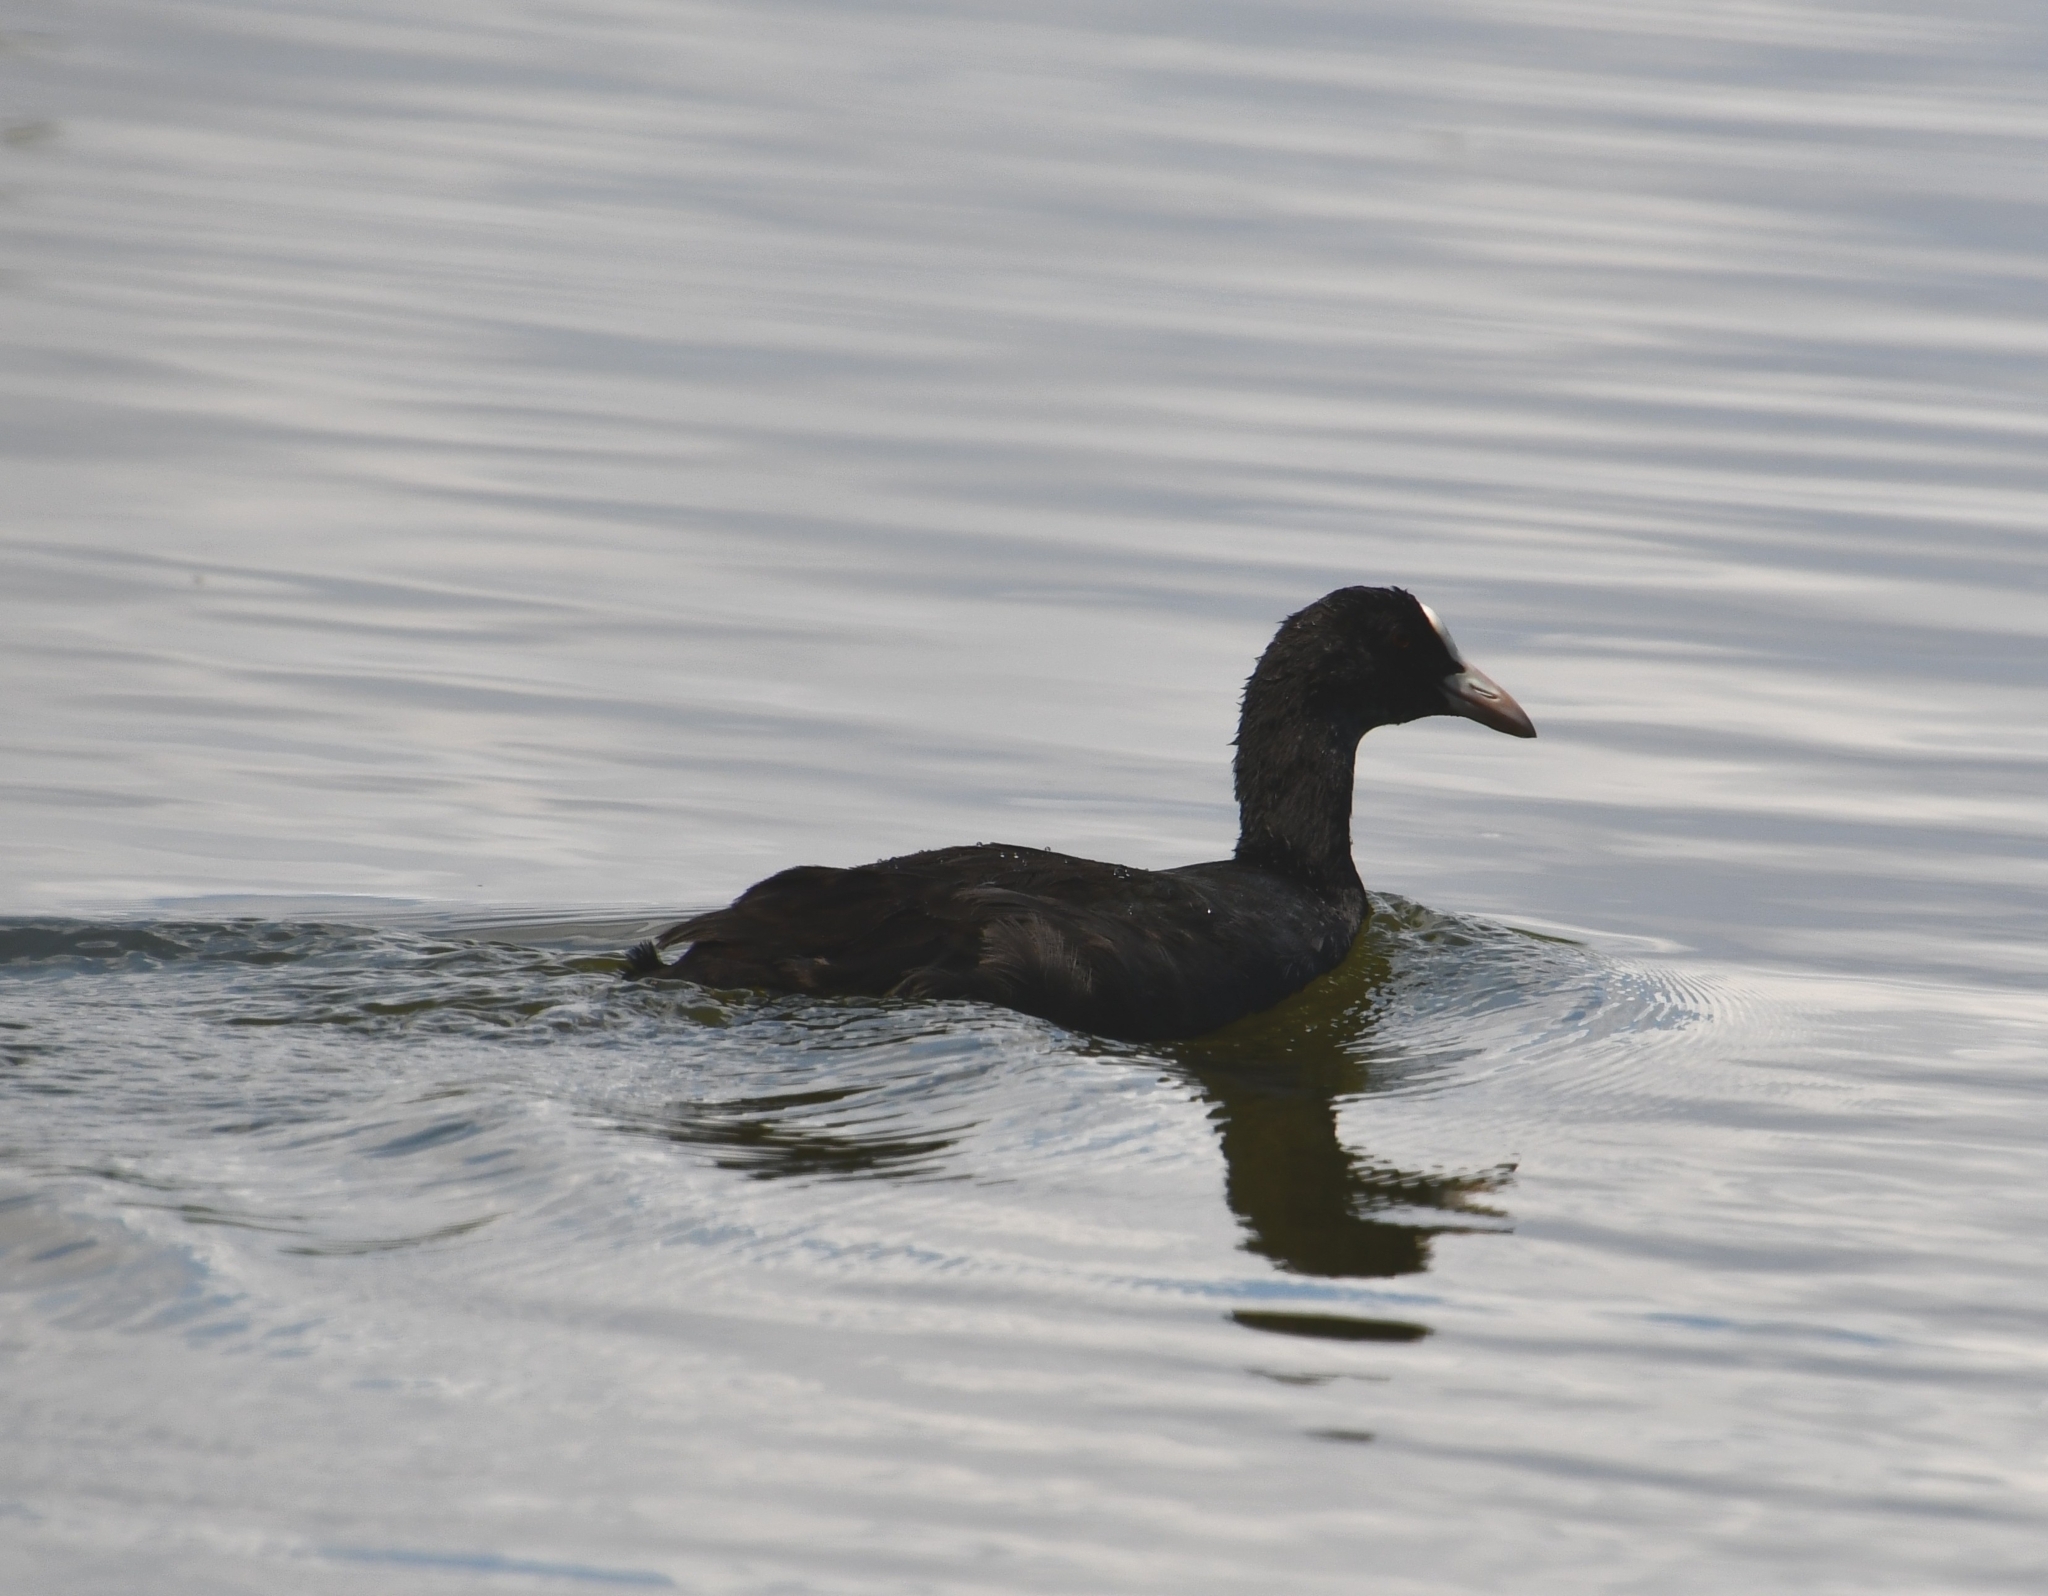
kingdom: Animalia
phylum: Chordata
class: Aves
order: Gruiformes
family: Rallidae
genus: Fulica
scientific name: Fulica atra
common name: Eurasian coot
